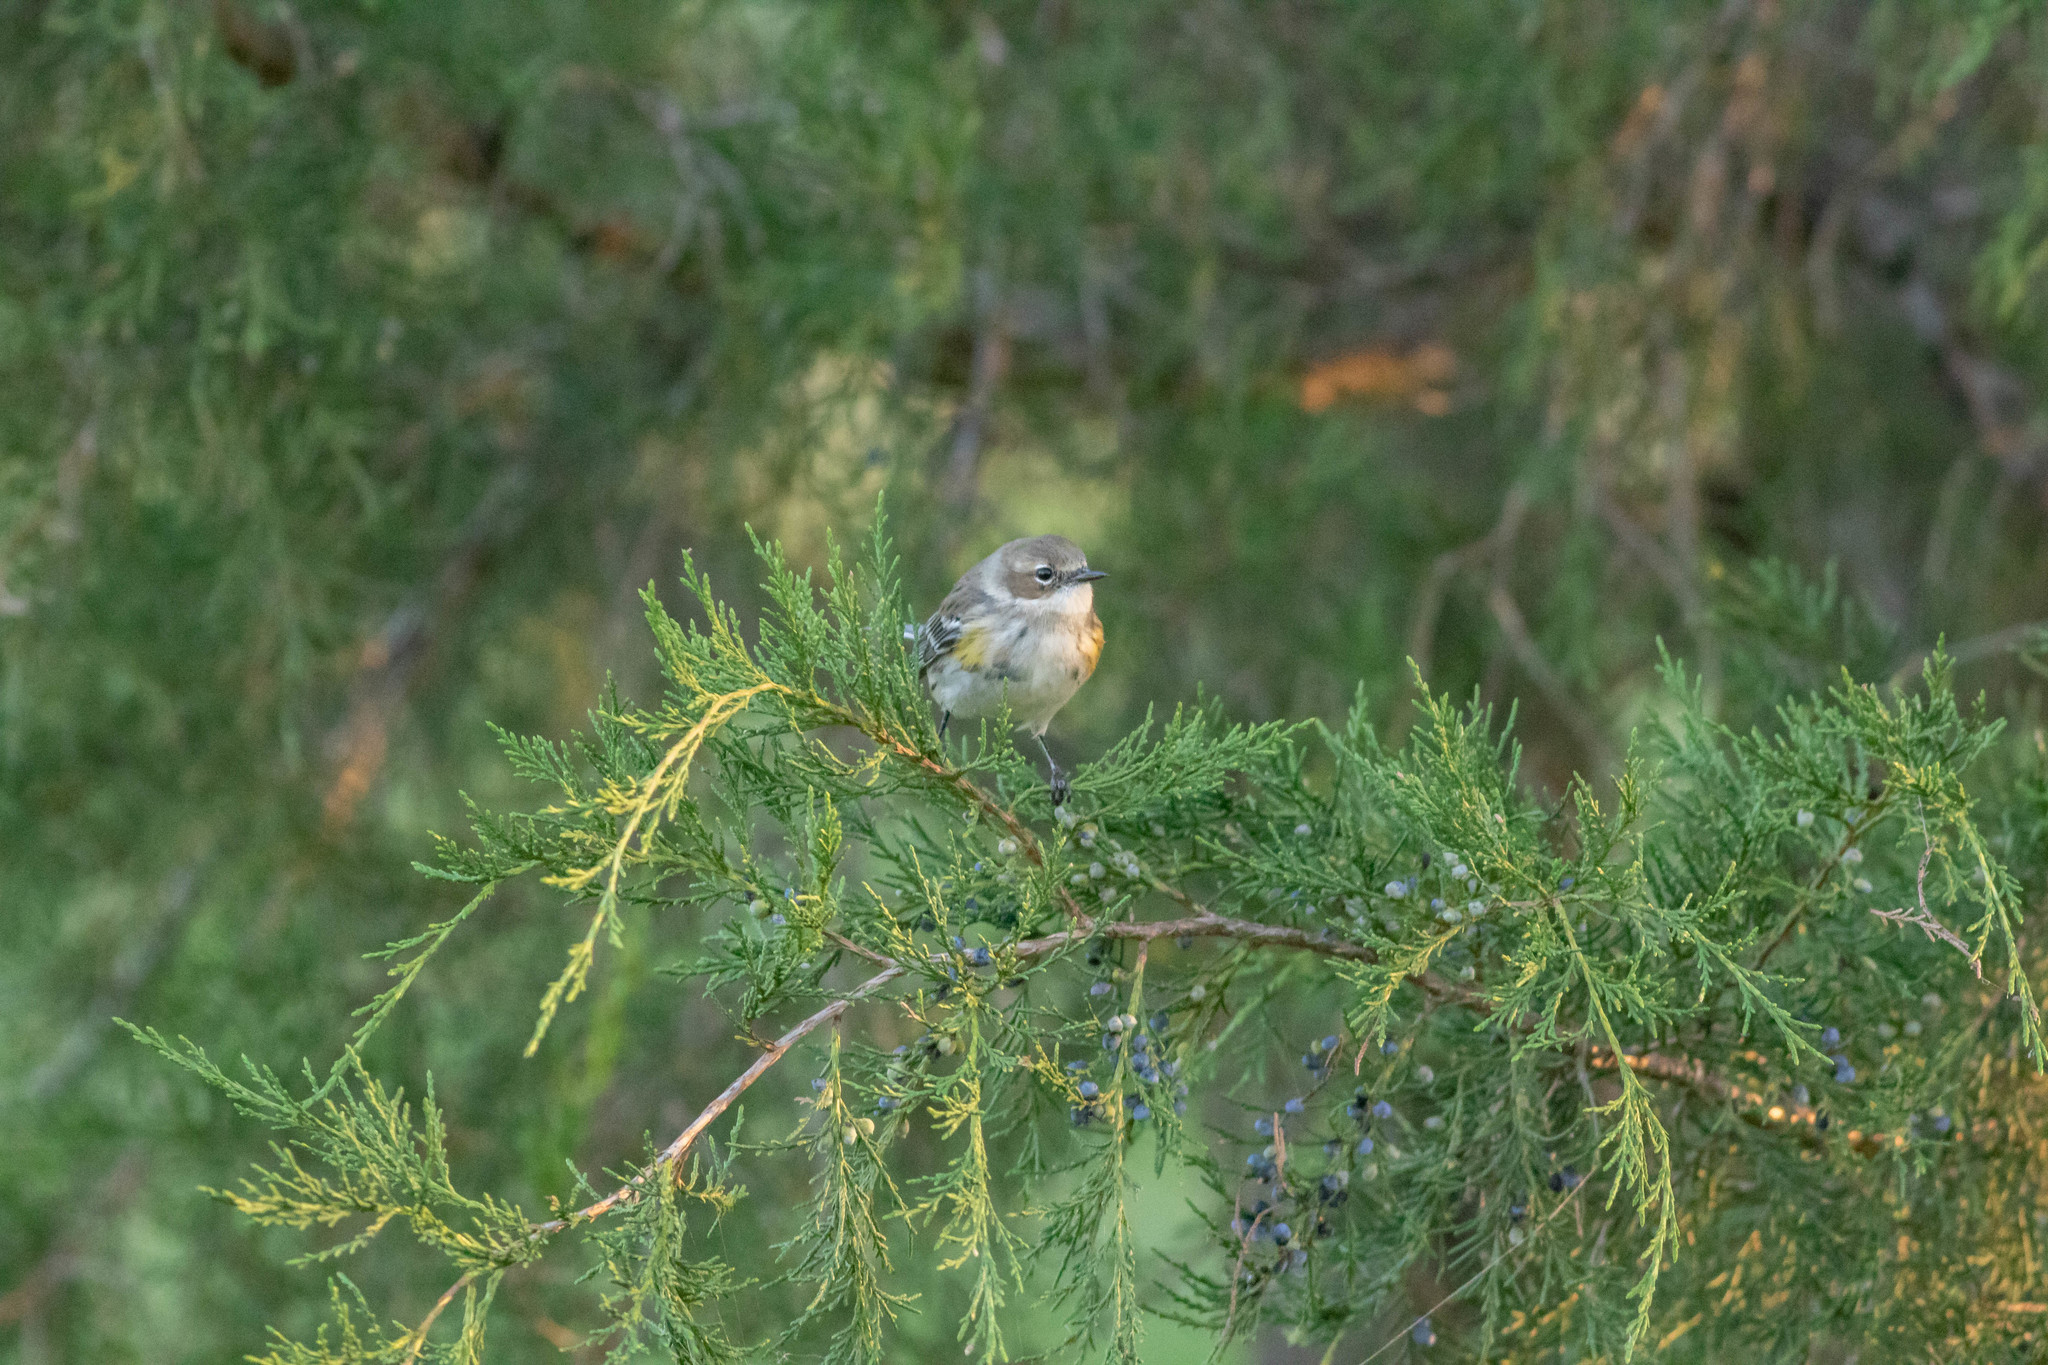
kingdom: Animalia
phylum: Chordata
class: Aves
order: Passeriformes
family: Parulidae
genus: Setophaga
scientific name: Setophaga coronata
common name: Myrtle warbler
